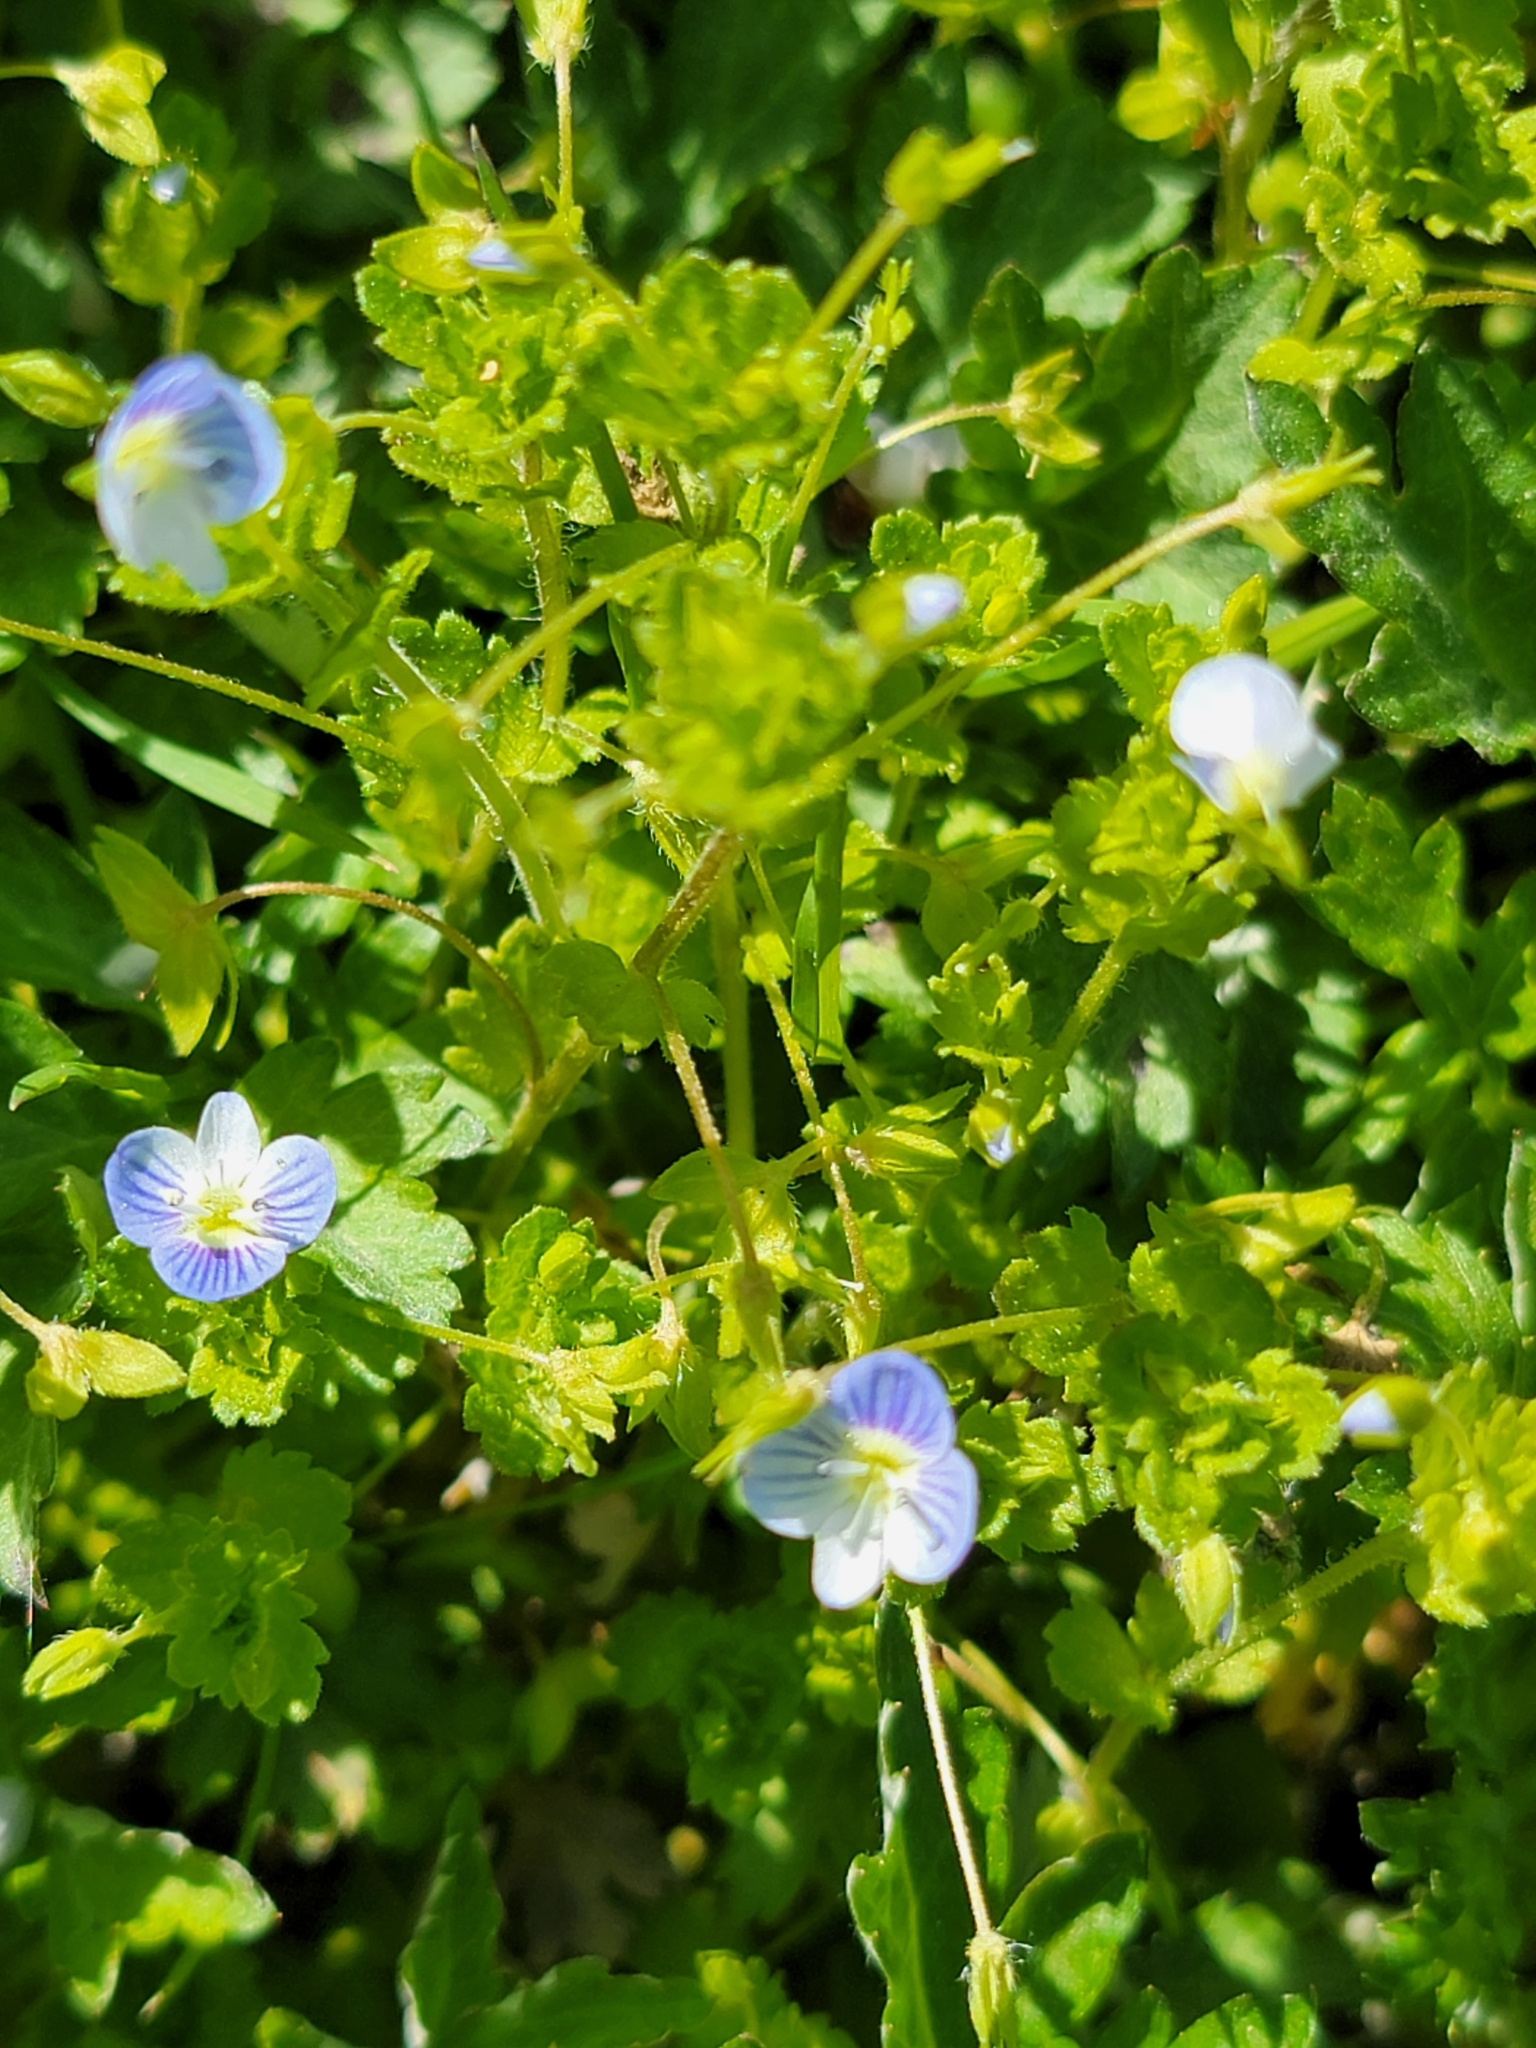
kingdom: Plantae
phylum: Tracheophyta
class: Magnoliopsida
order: Lamiales
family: Plantaginaceae
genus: Veronica
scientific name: Veronica persica
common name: Common field-speedwell
